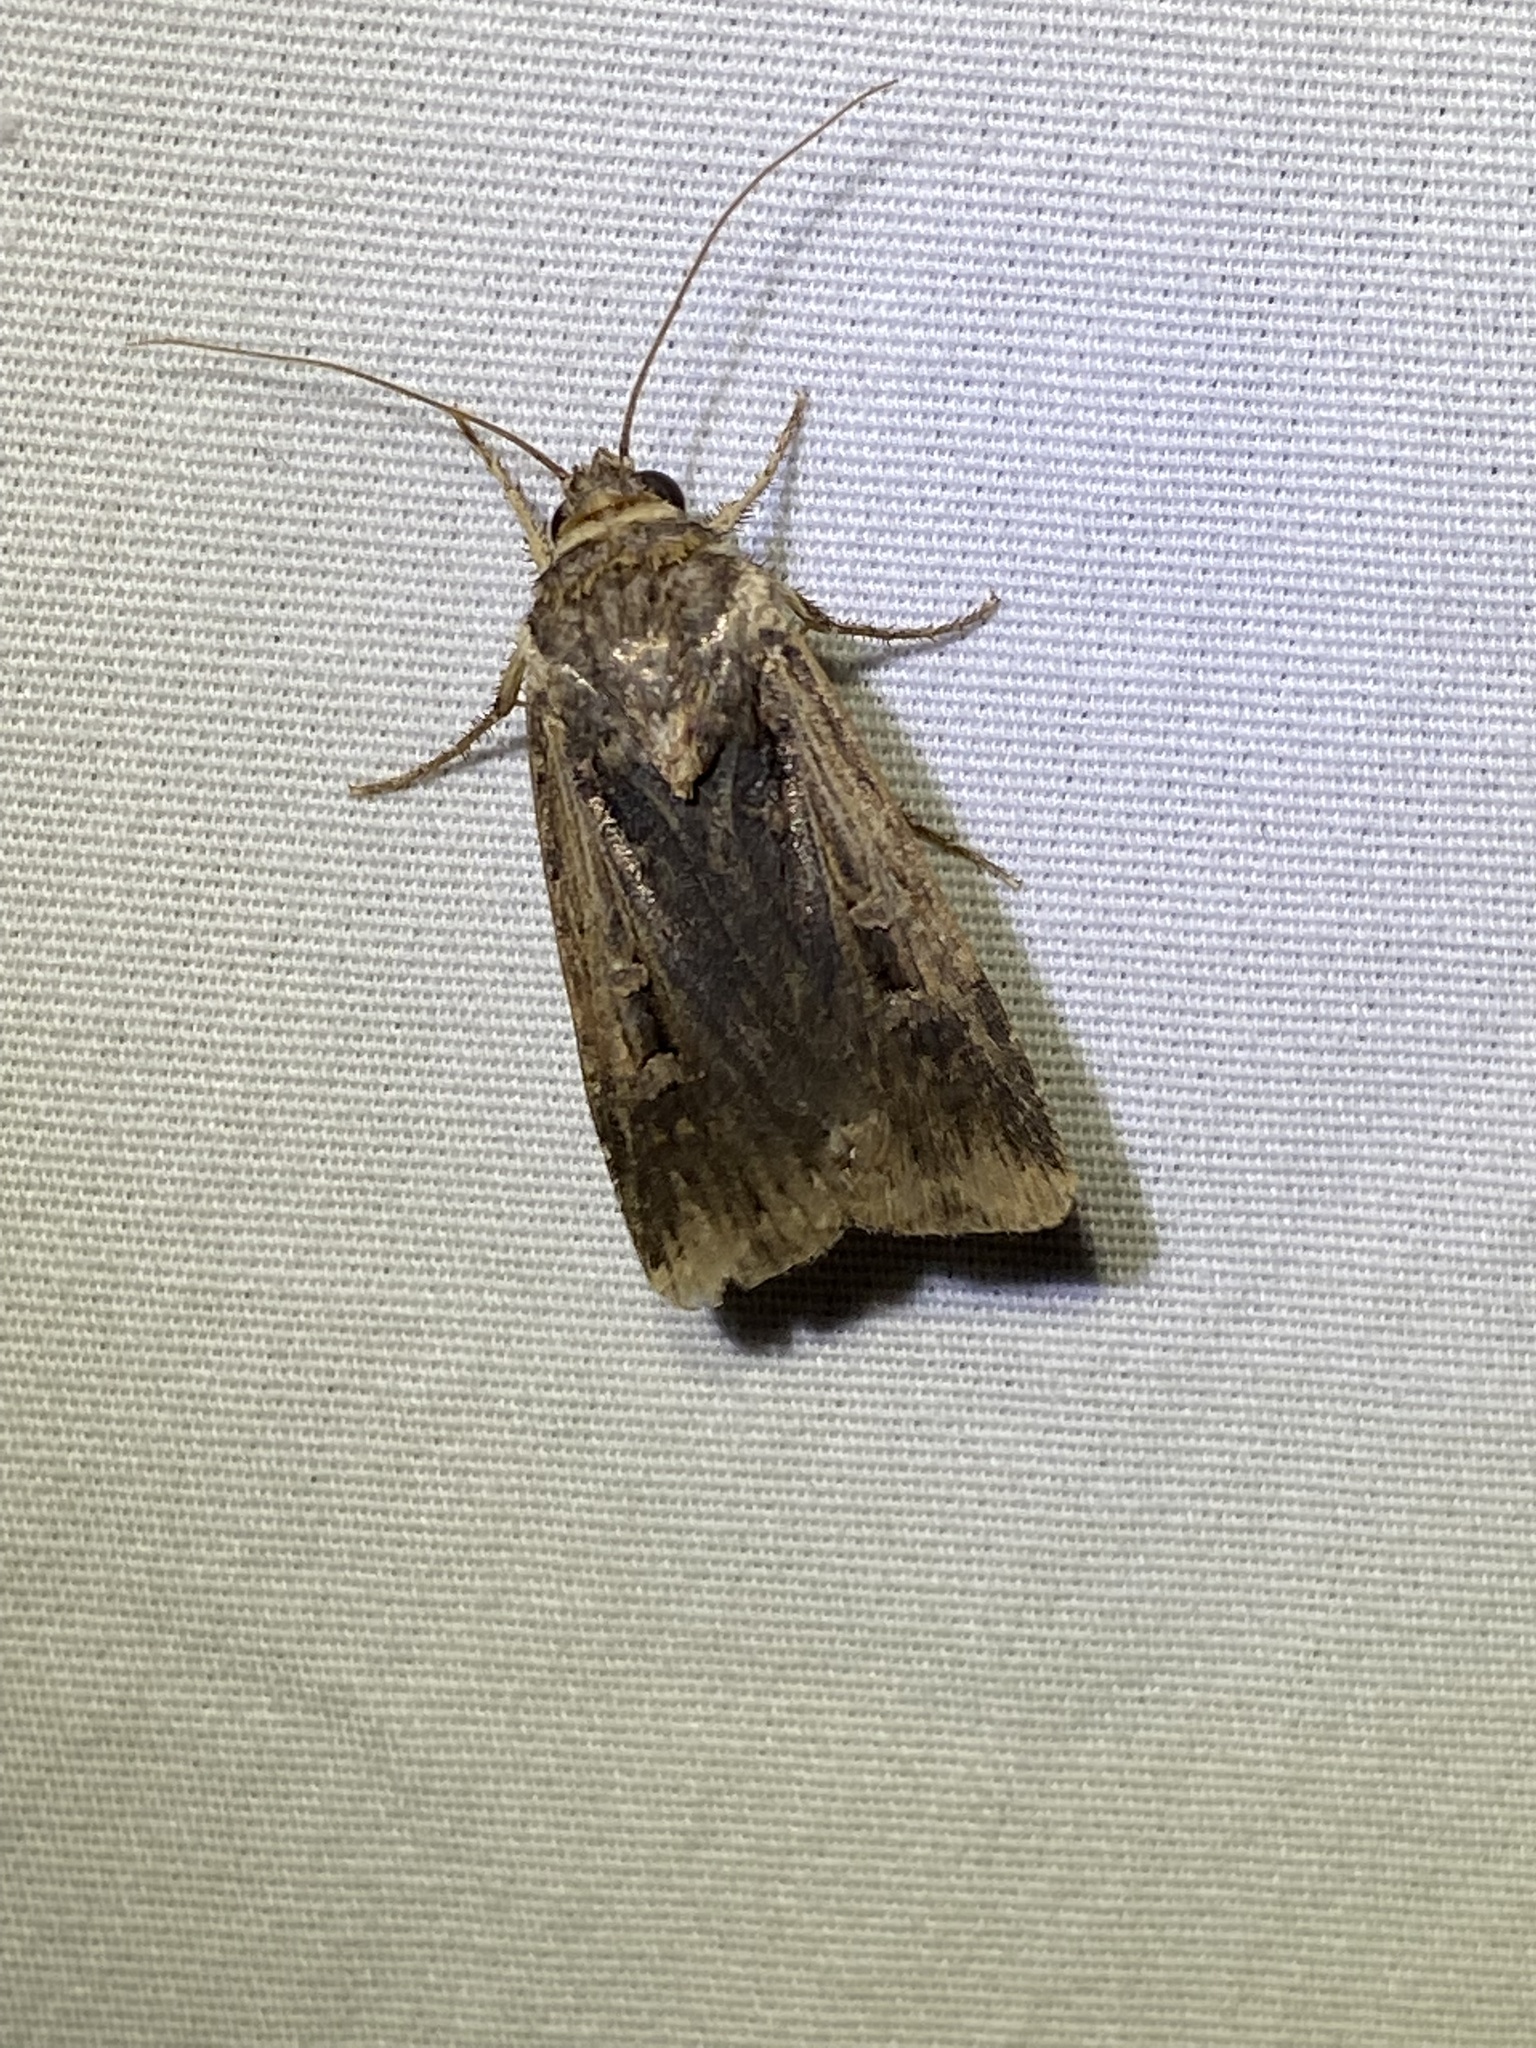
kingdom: Animalia
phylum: Arthropoda
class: Insecta
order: Lepidoptera
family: Noctuidae
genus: Feltia
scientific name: Feltia subterranea
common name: Granulate cutworm
